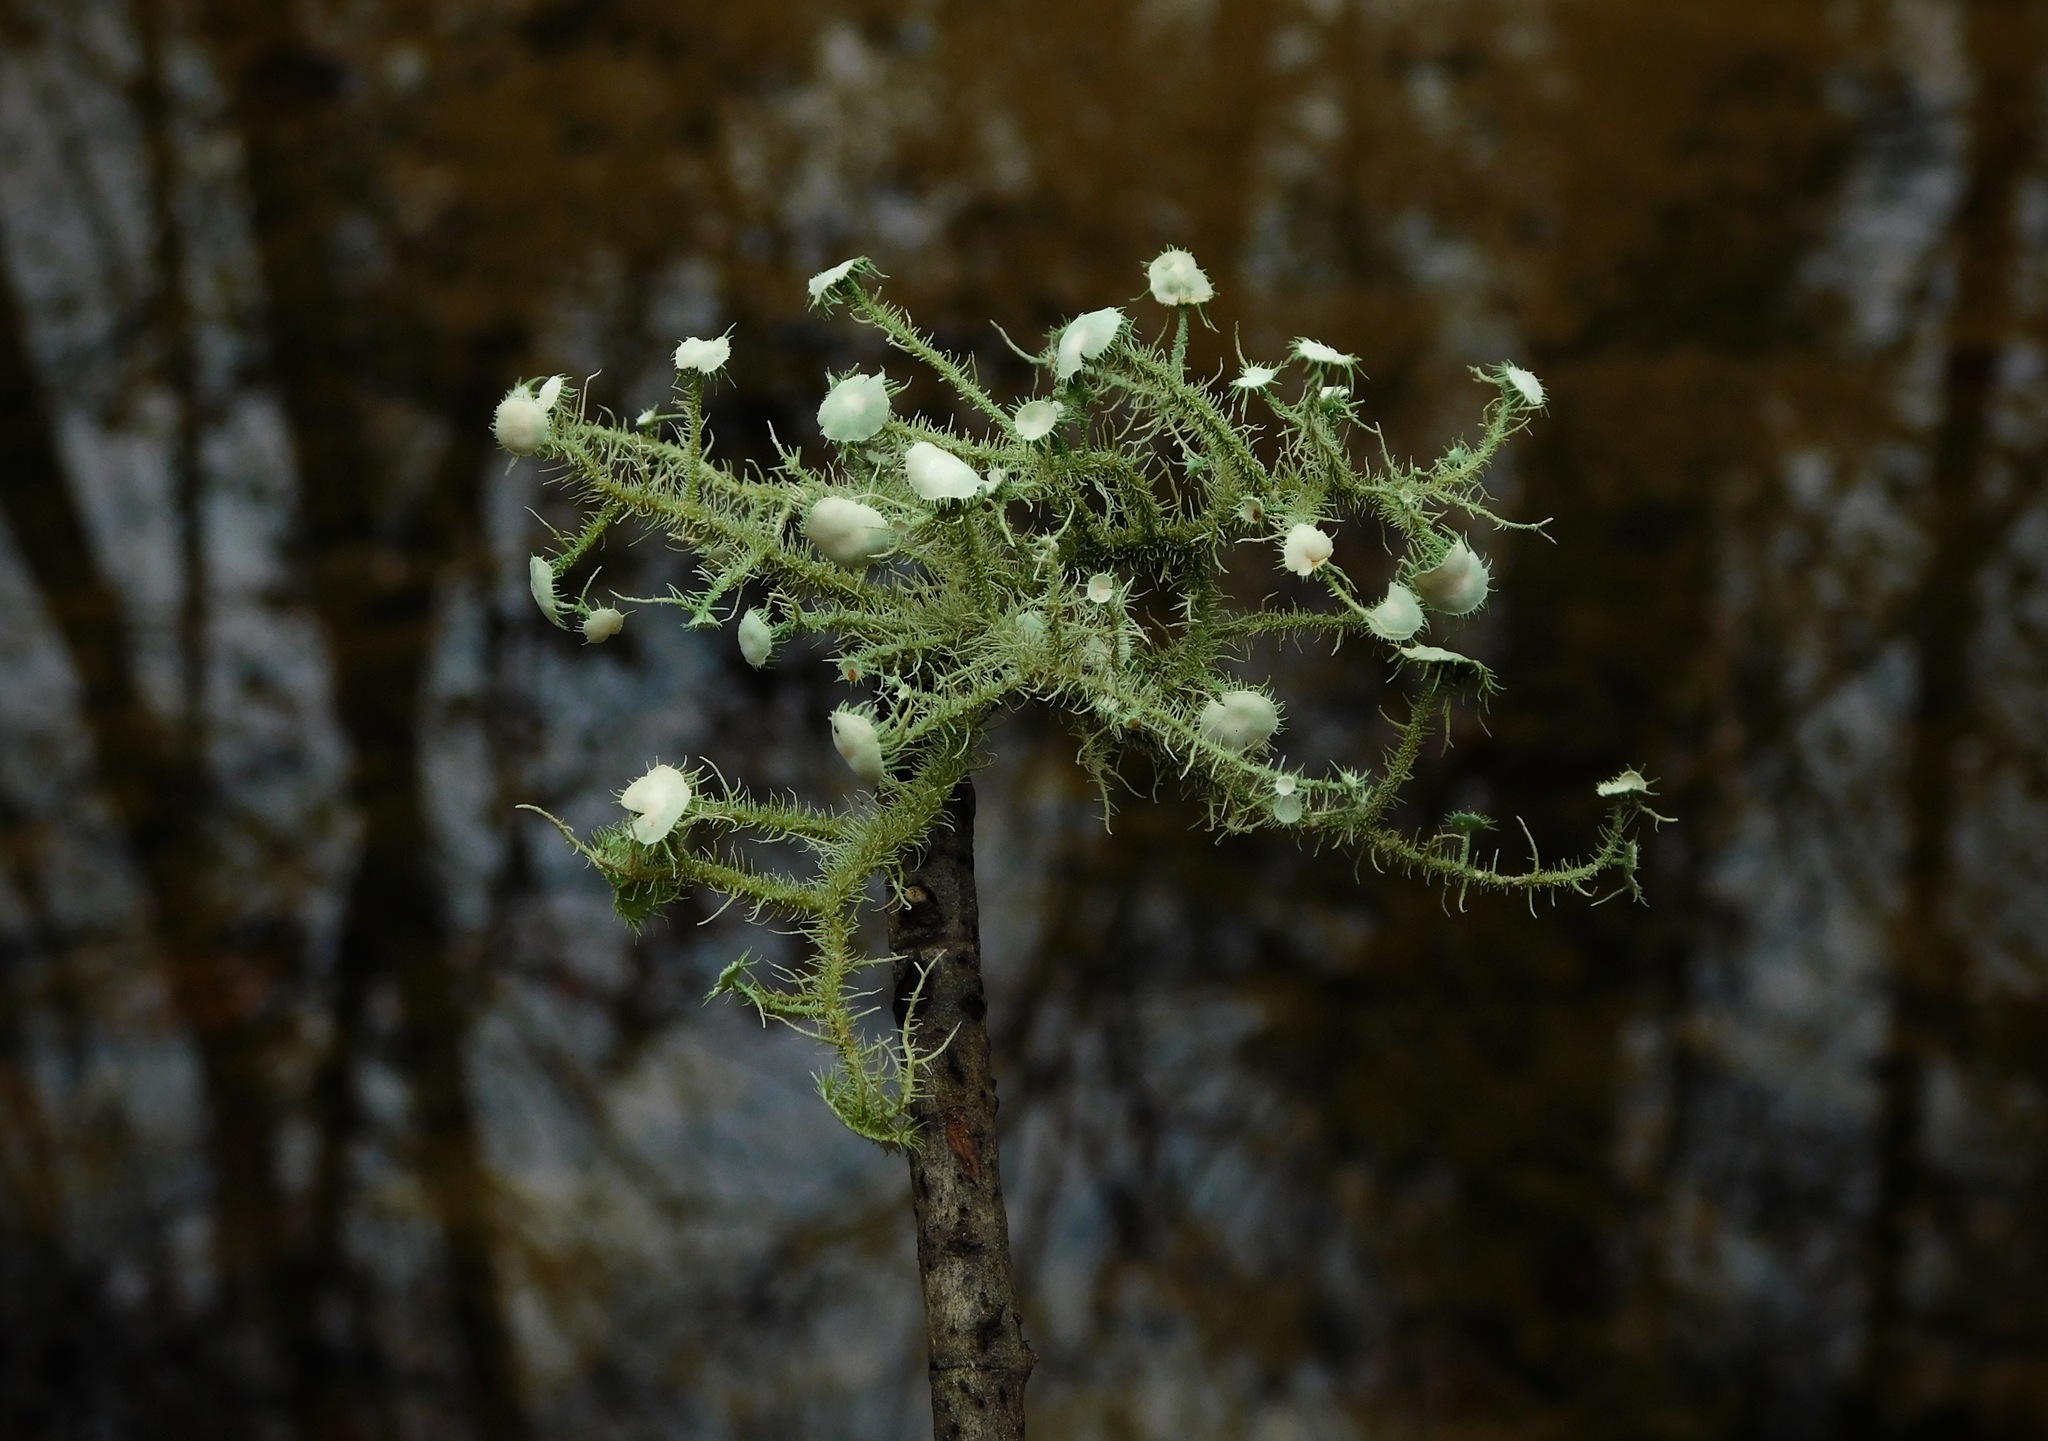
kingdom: Fungi
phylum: Ascomycota
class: Lecanoromycetes
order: Lecanorales
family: Parmeliaceae
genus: Usnea
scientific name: Usnea strigosa
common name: Bushy beard lichen
